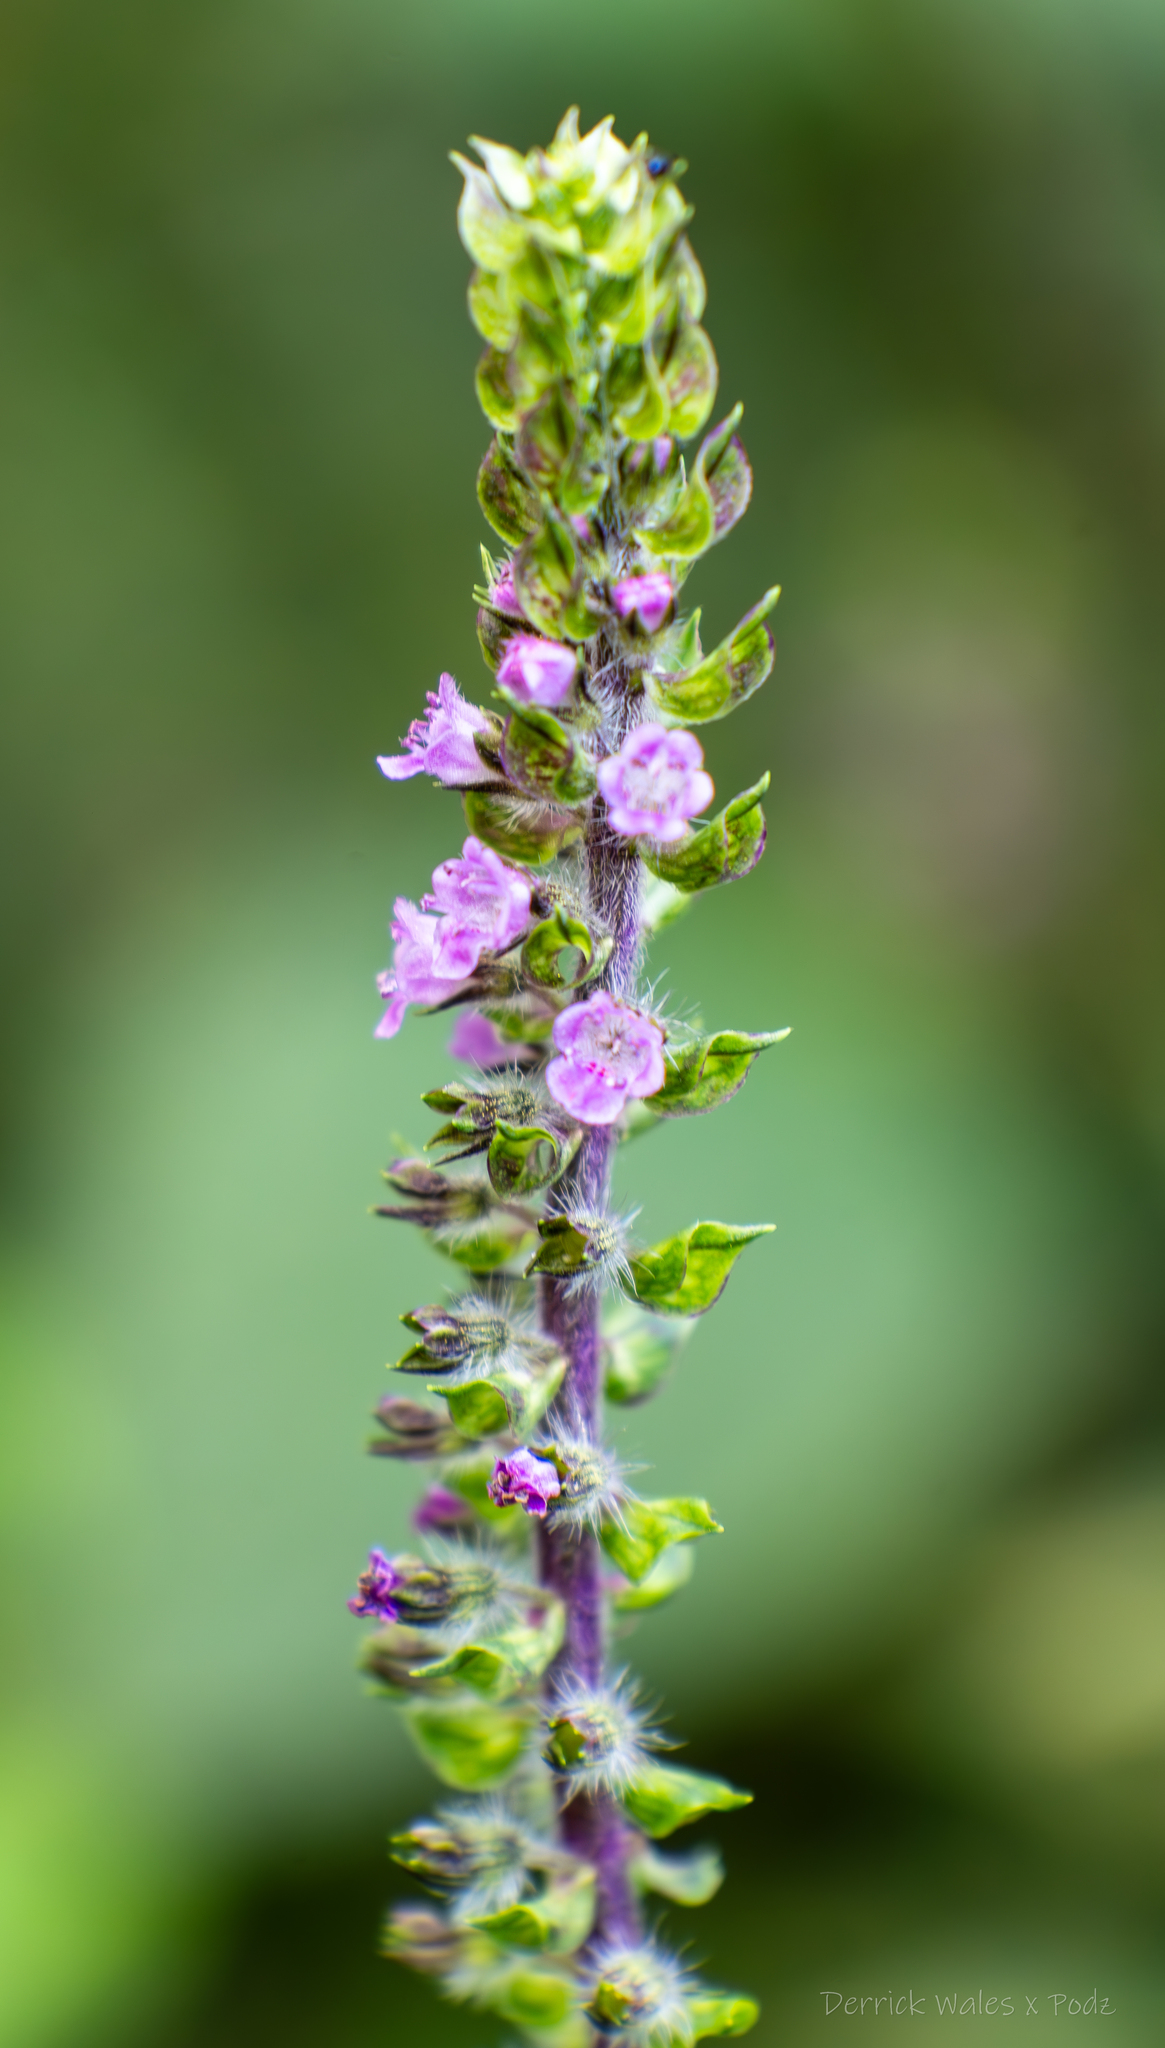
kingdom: Plantae
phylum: Tracheophyta
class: Magnoliopsida
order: Lamiales
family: Lamiaceae
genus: Perilla
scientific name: Perilla frutescens
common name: Perilla
